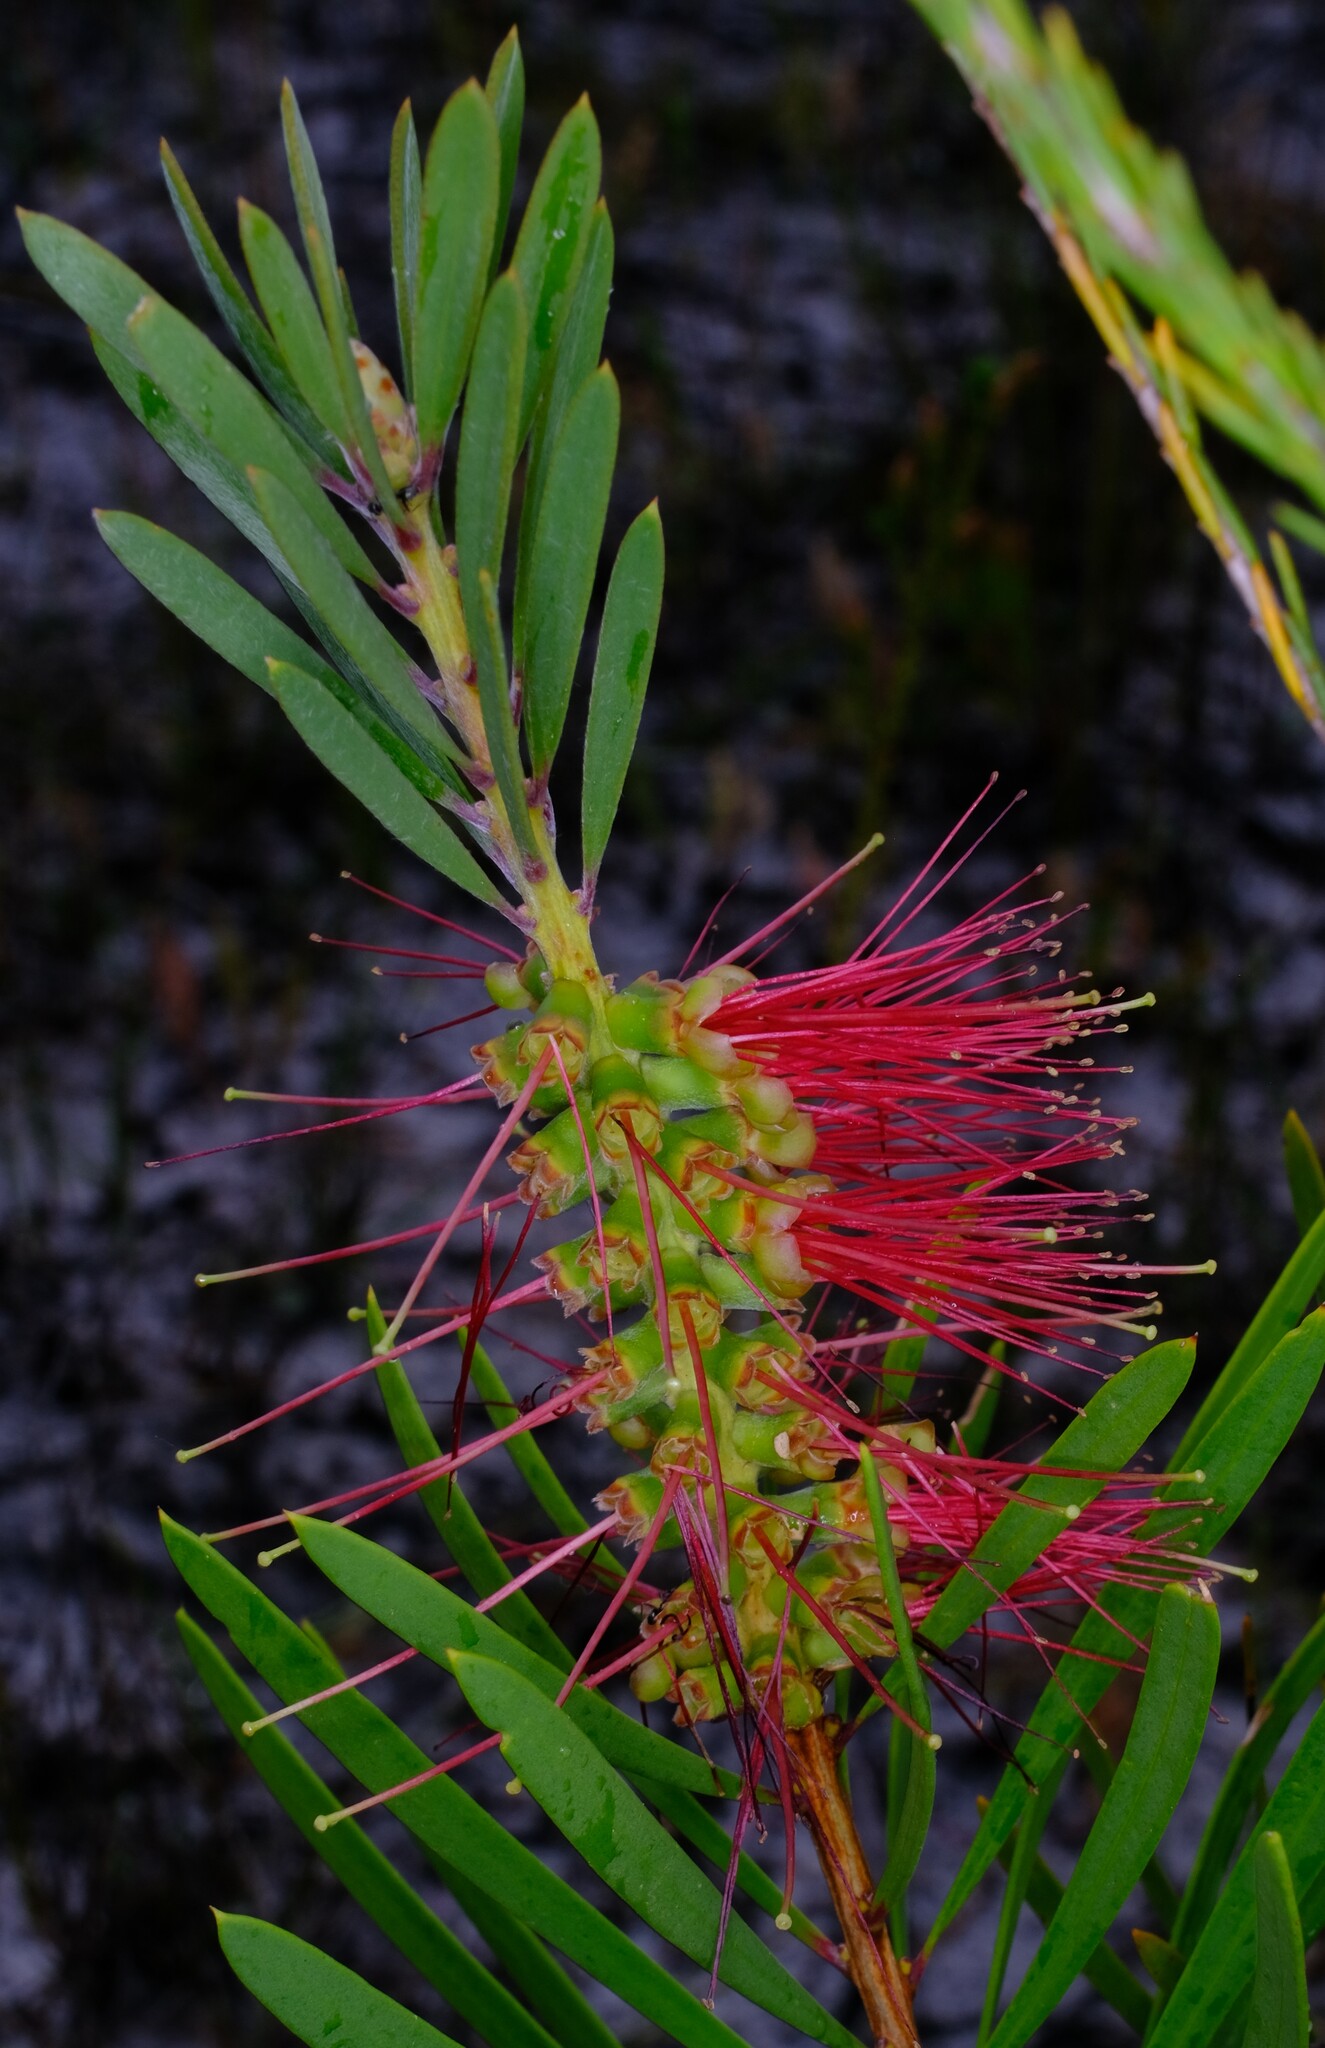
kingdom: Plantae
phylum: Tracheophyta
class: Magnoliopsida
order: Myrtales
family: Myrtaceae
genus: Callistemon
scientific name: Callistemon pachyphyllus
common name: Wallum bottlebrush
